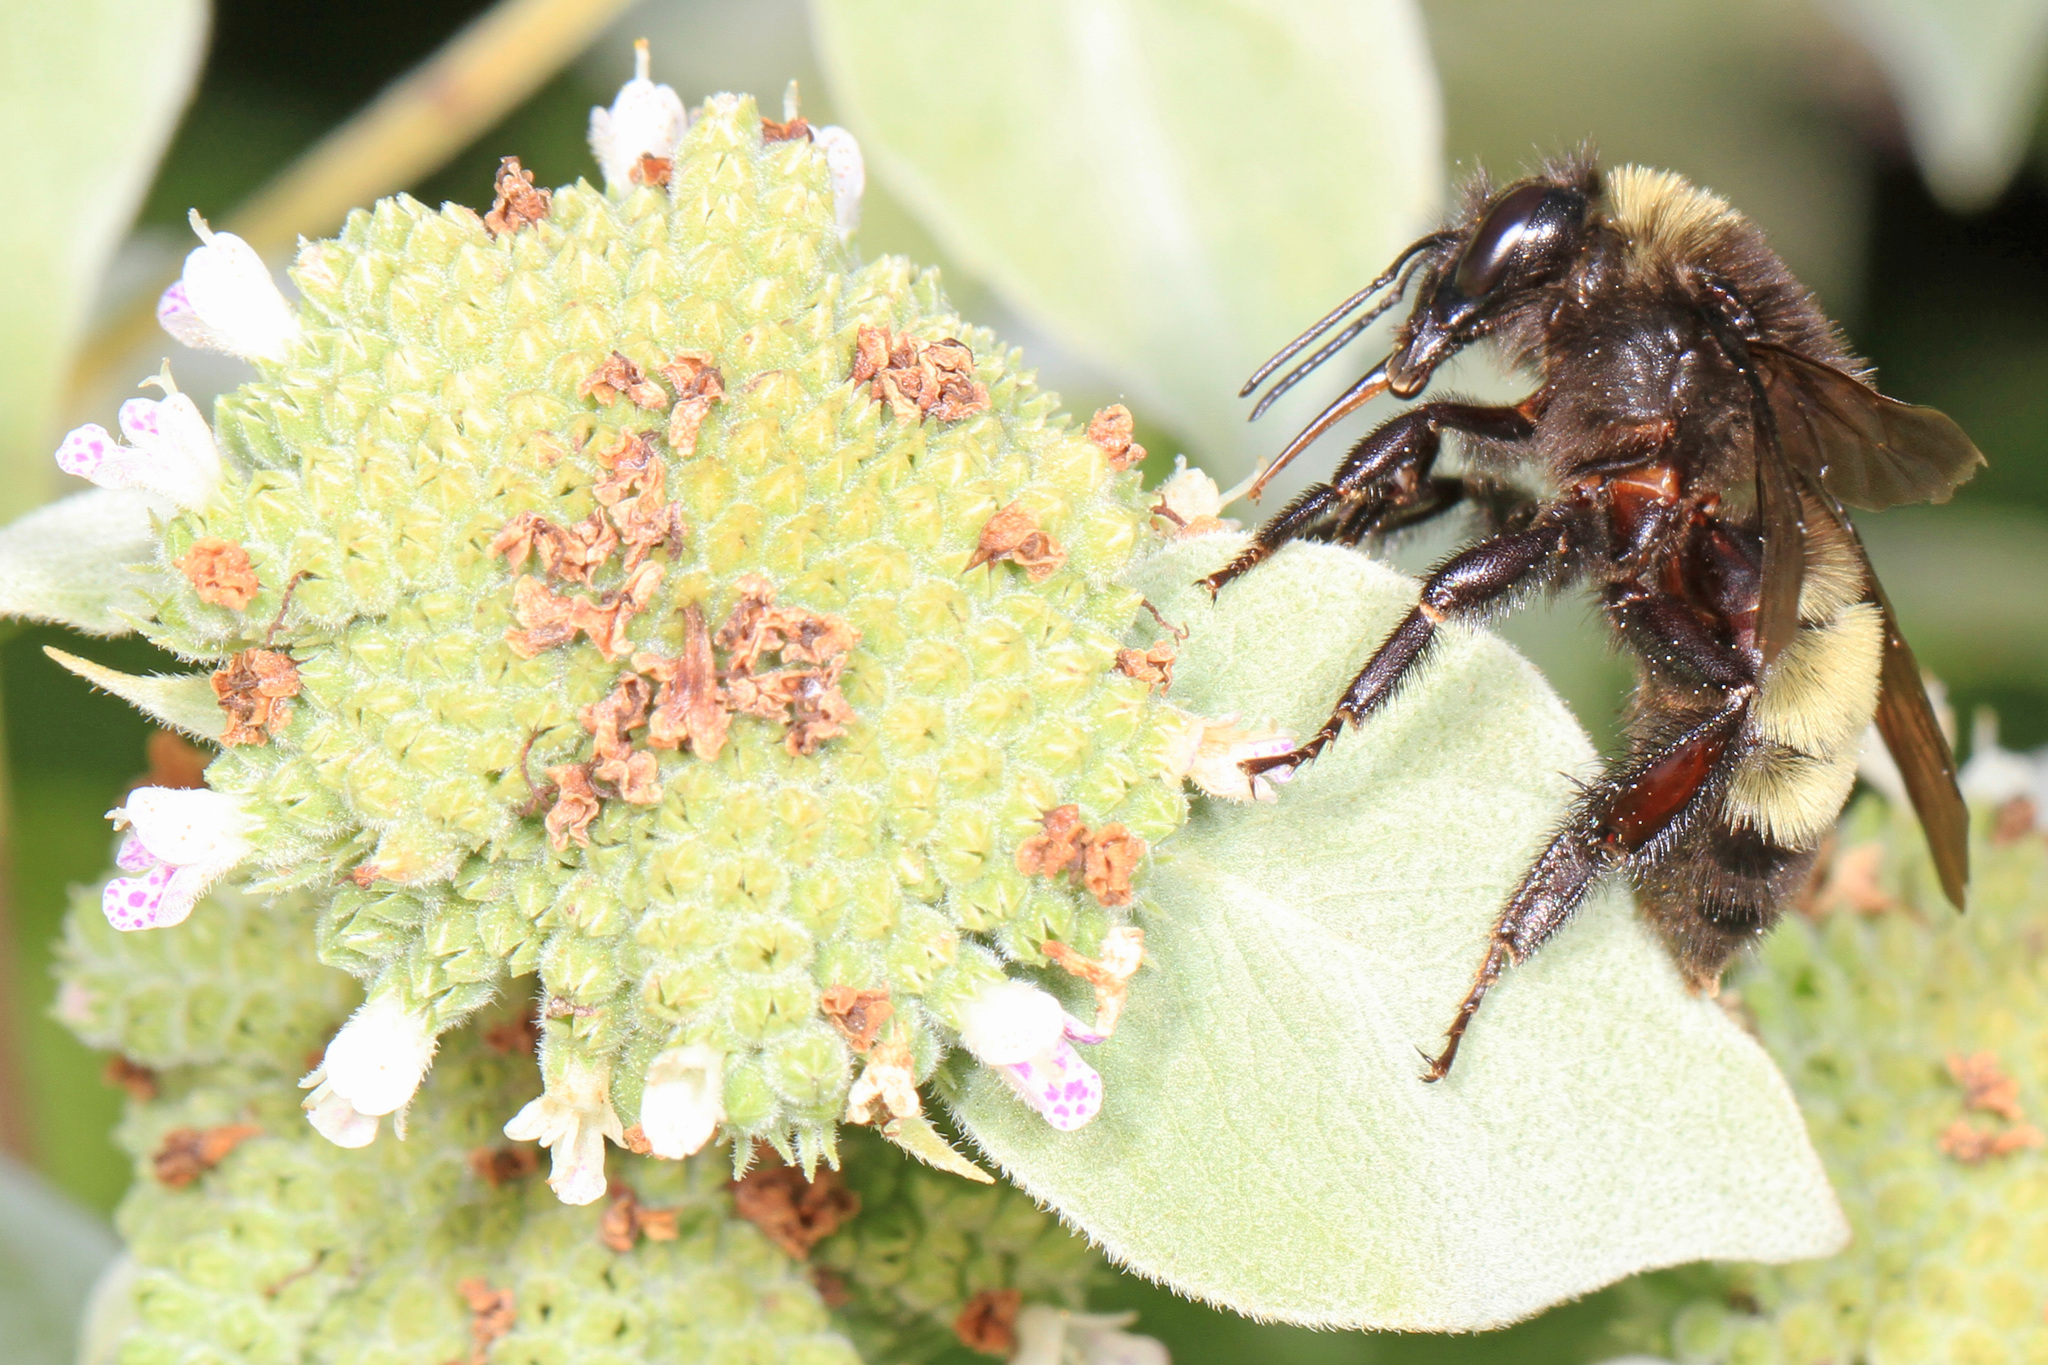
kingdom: Animalia
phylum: Arthropoda
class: Insecta
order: Hymenoptera
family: Apidae
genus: Bombus
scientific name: Bombus pensylvanicus
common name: Bumble bee
